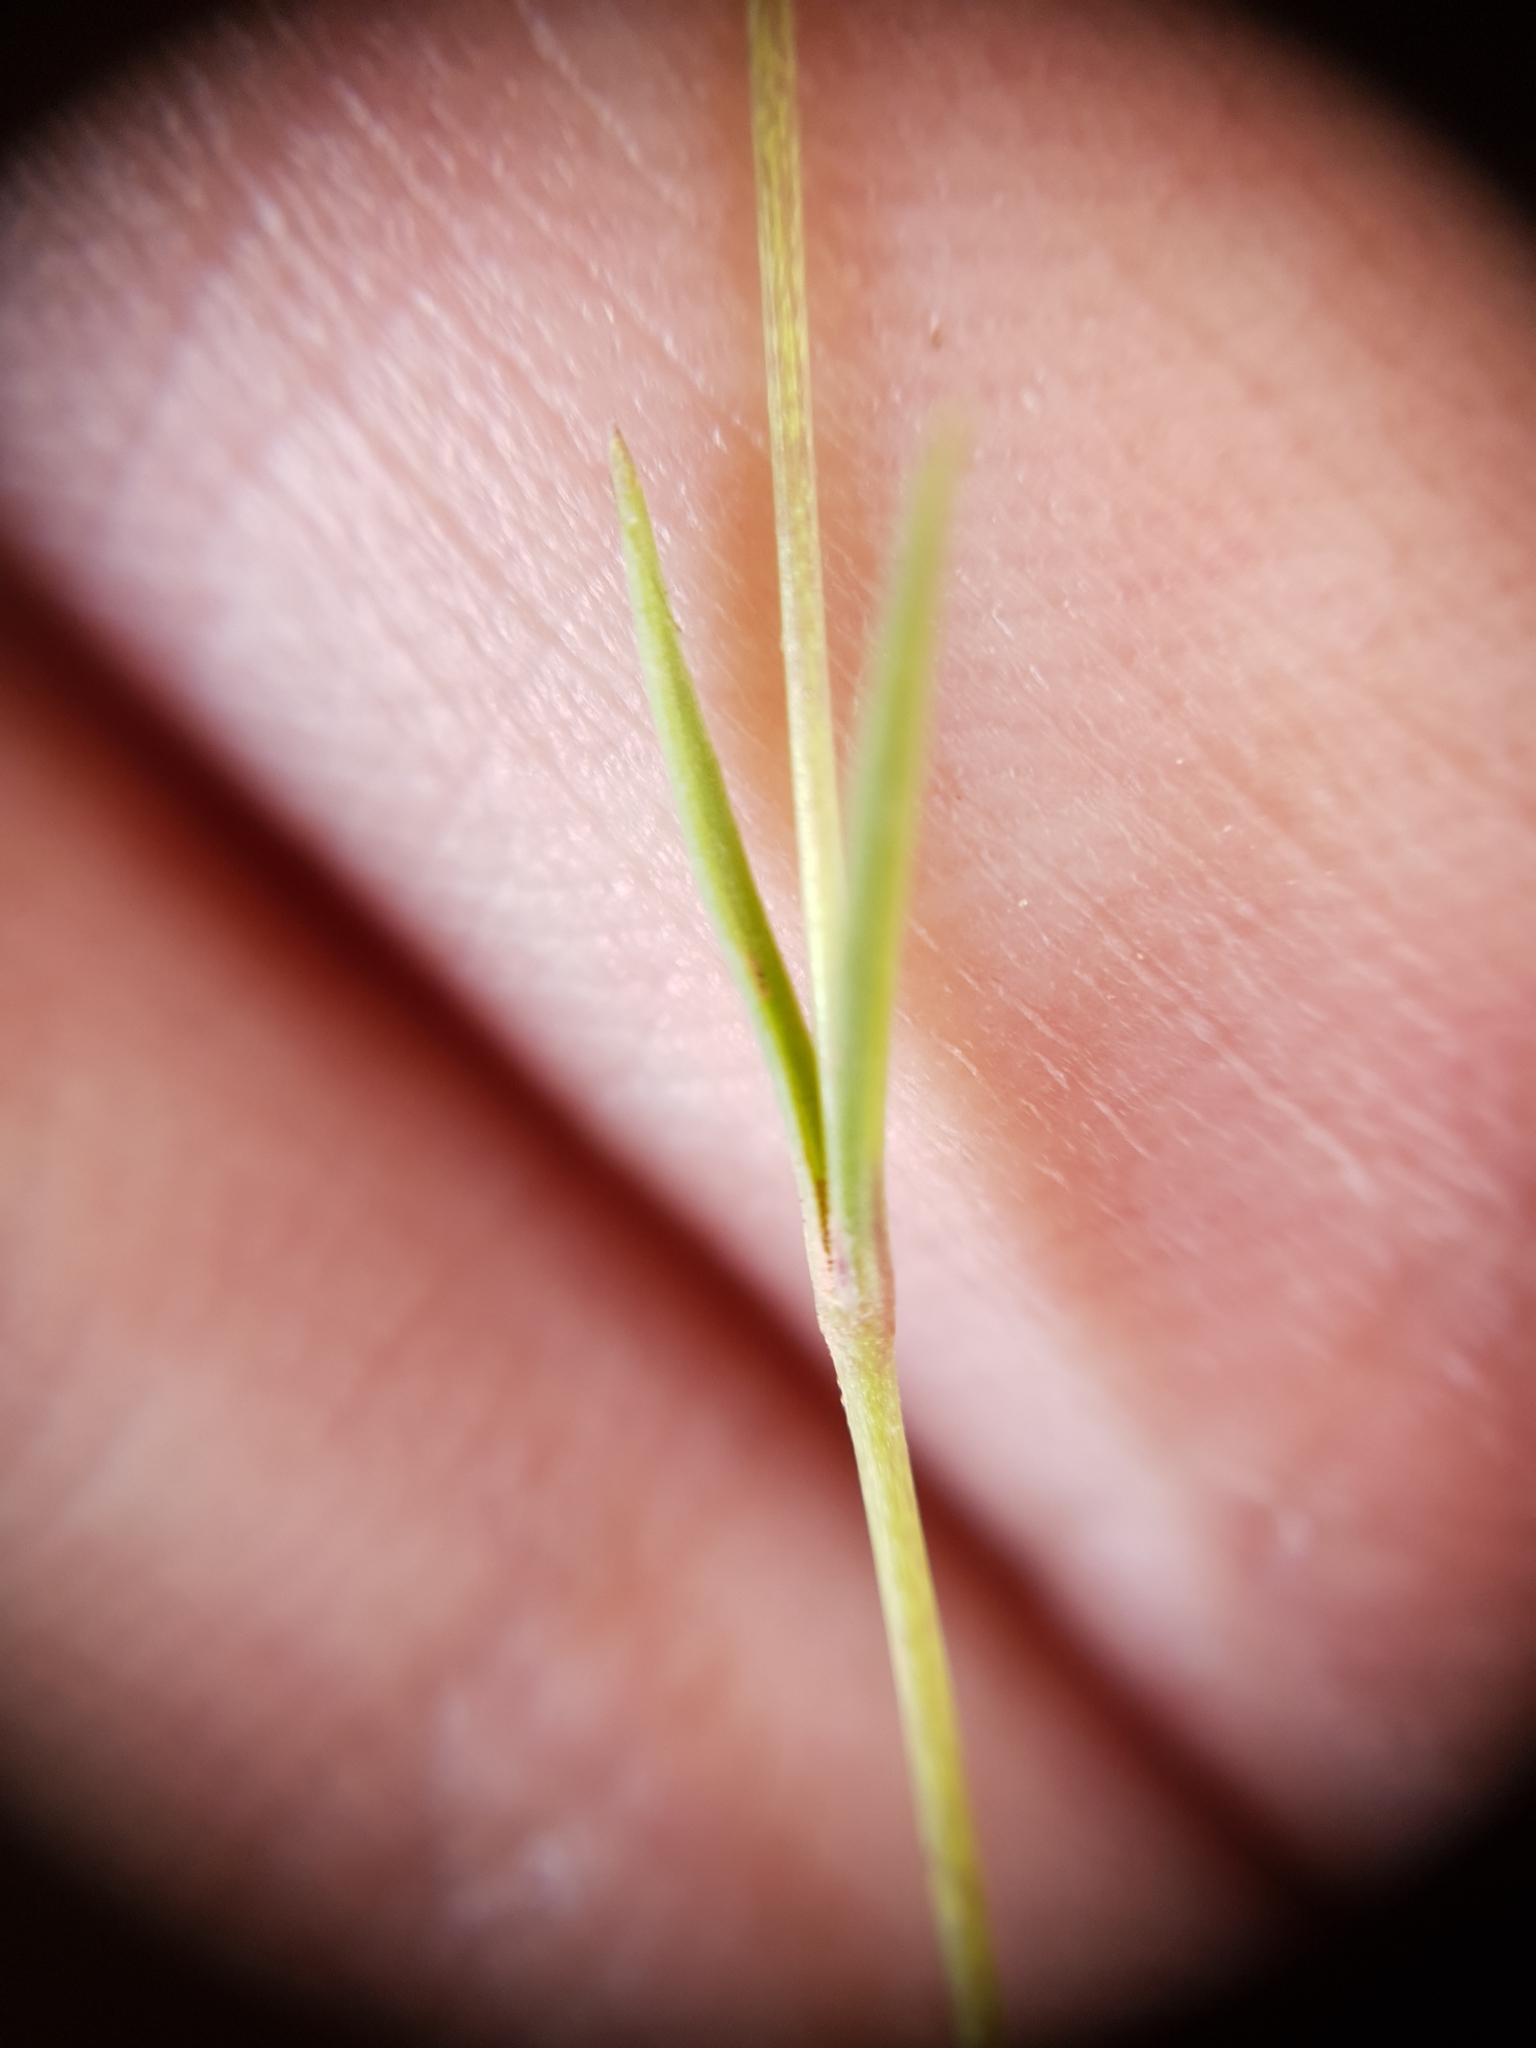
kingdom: Plantae
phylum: Tracheophyta
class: Magnoliopsida
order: Caryophyllales
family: Caryophyllaceae
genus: Silene
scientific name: Silene muscipula
